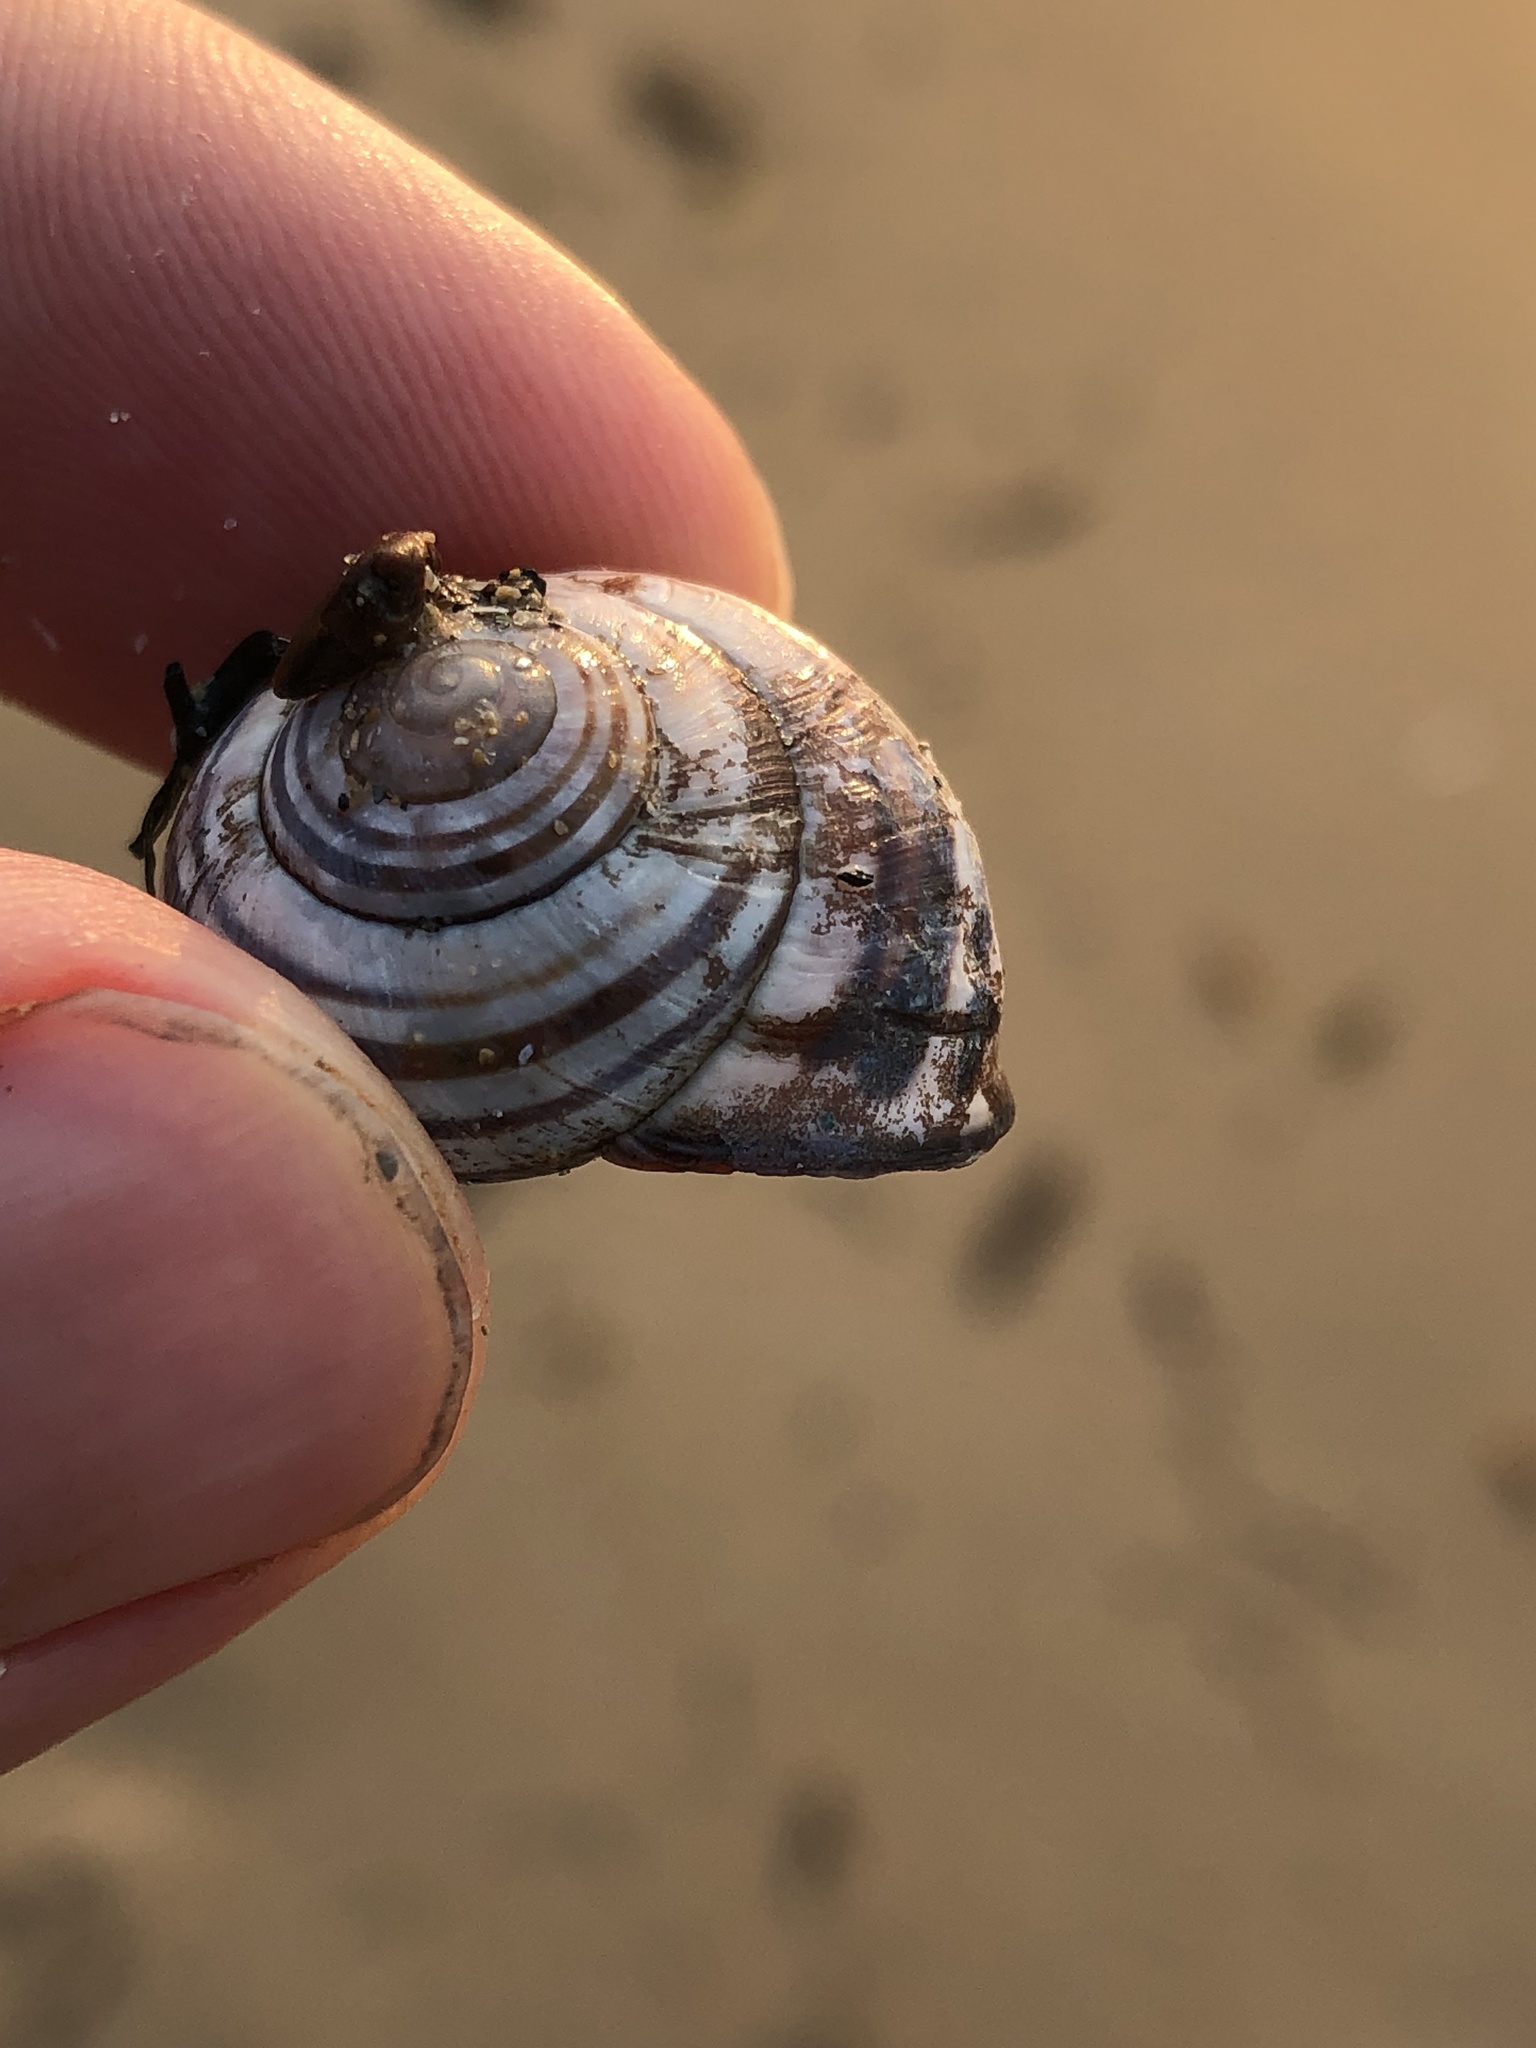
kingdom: Animalia
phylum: Mollusca
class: Gastropoda
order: Stylommatophora
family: Helicidae
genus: Cepaea
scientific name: Cepaea nemoralis
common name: Grovesnail
